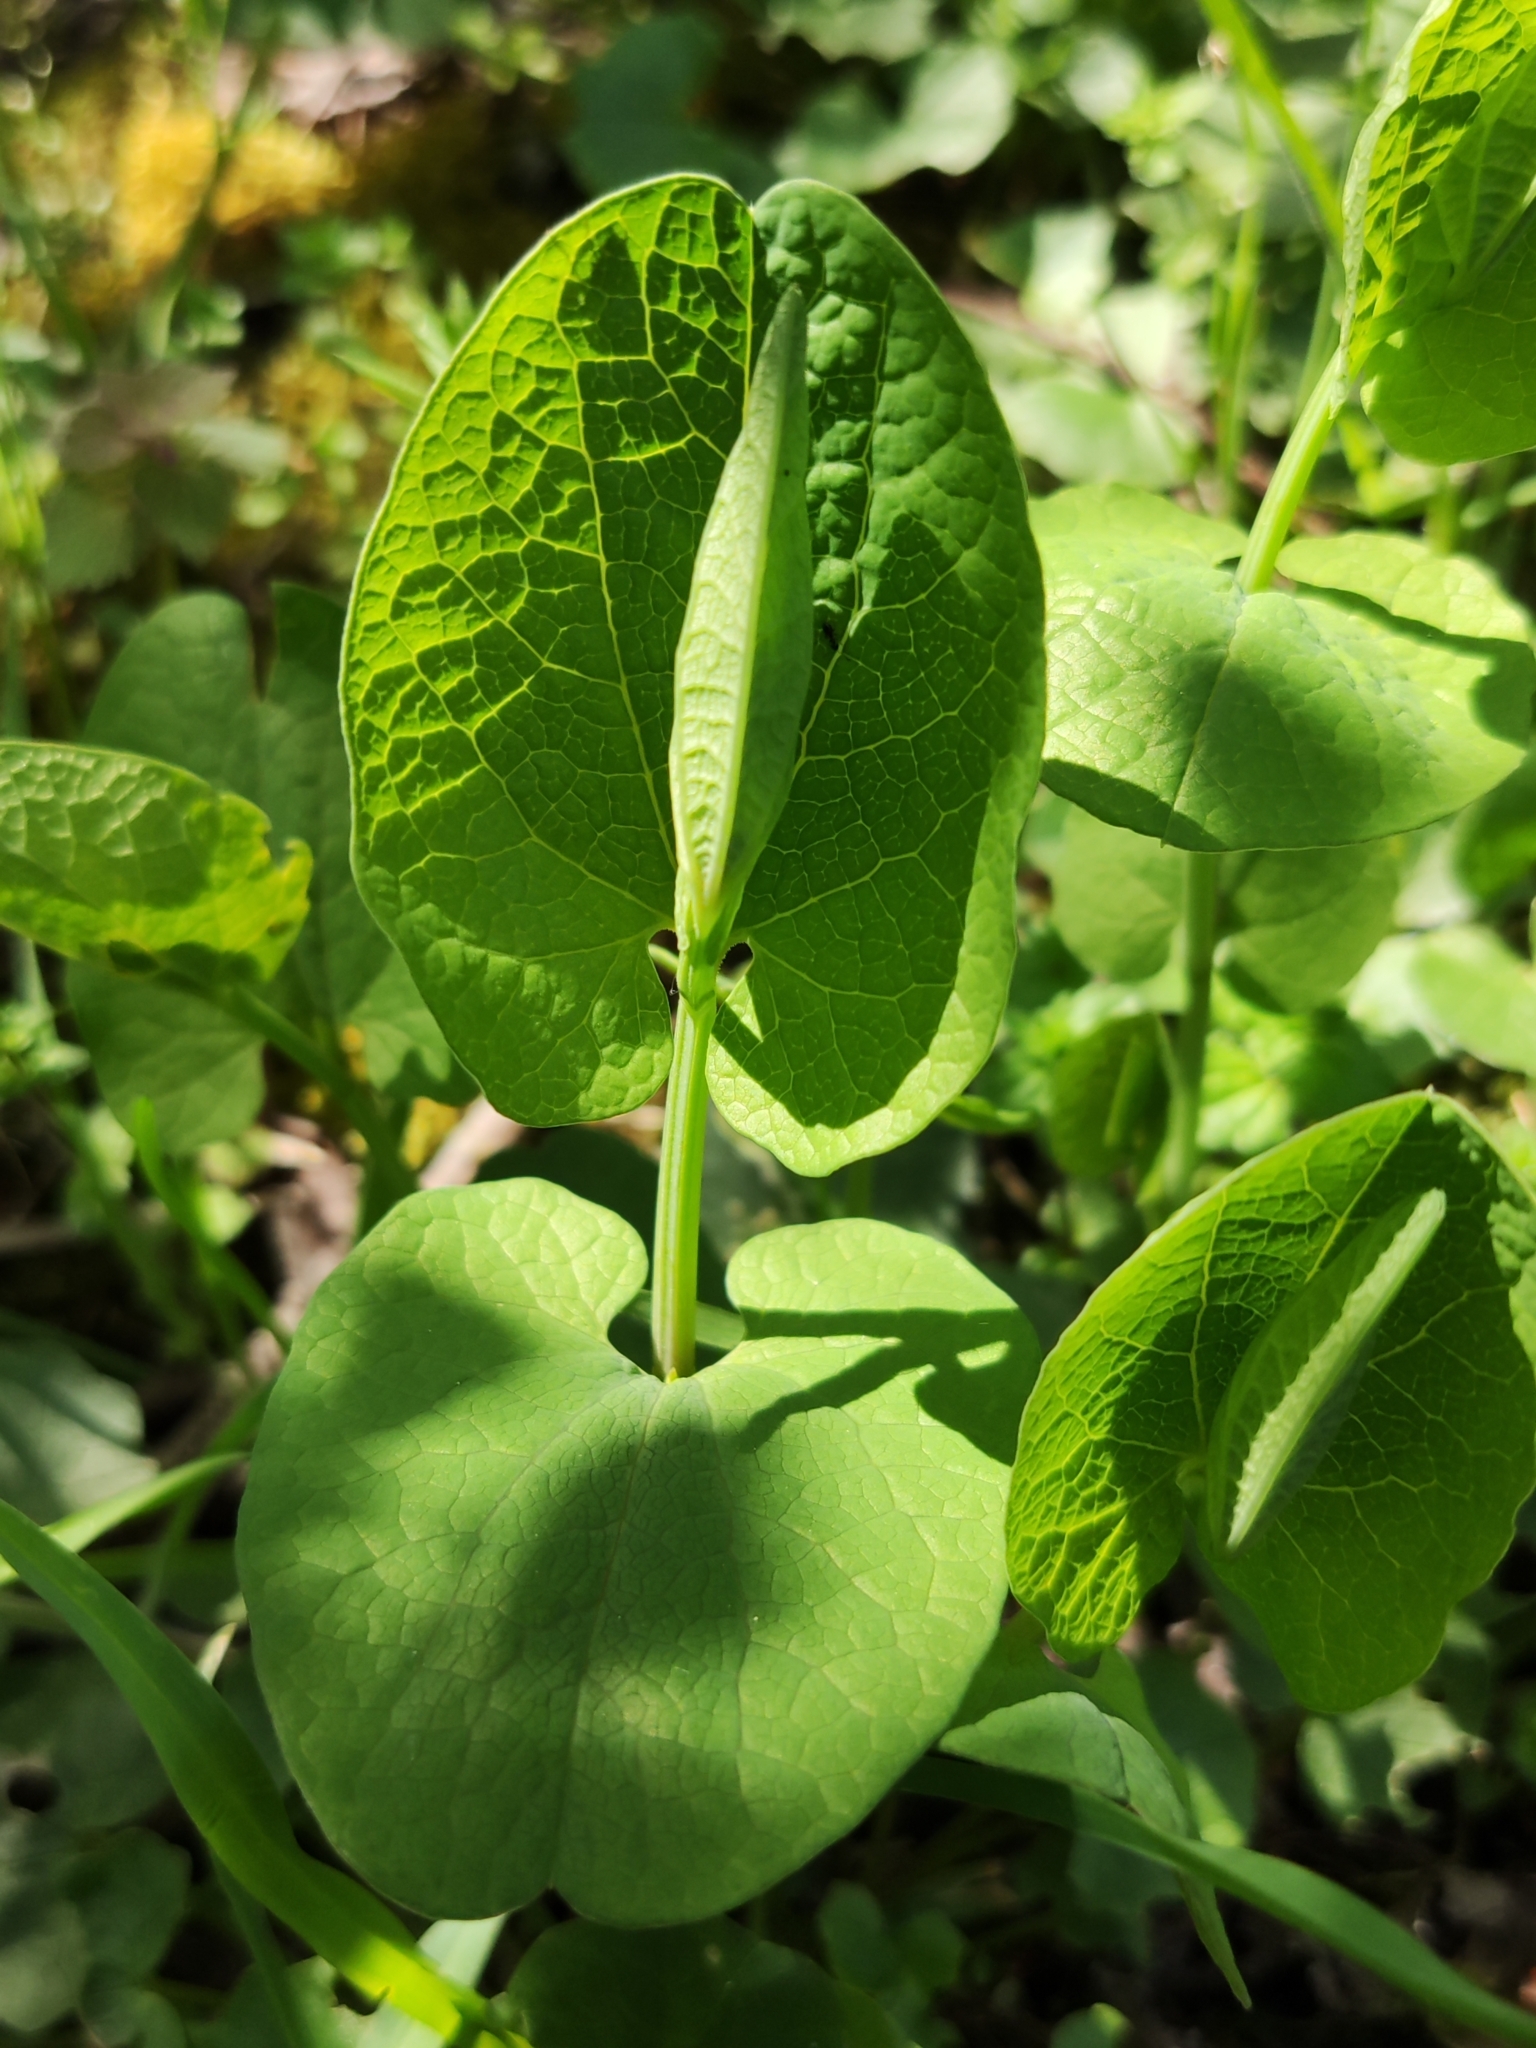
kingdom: Plantae
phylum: Tracheophyta
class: Magnoliopsida
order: Piperales
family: Aristolochiaceae
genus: Aristolochia
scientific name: Aristolochia rotunda
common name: Smearwort
